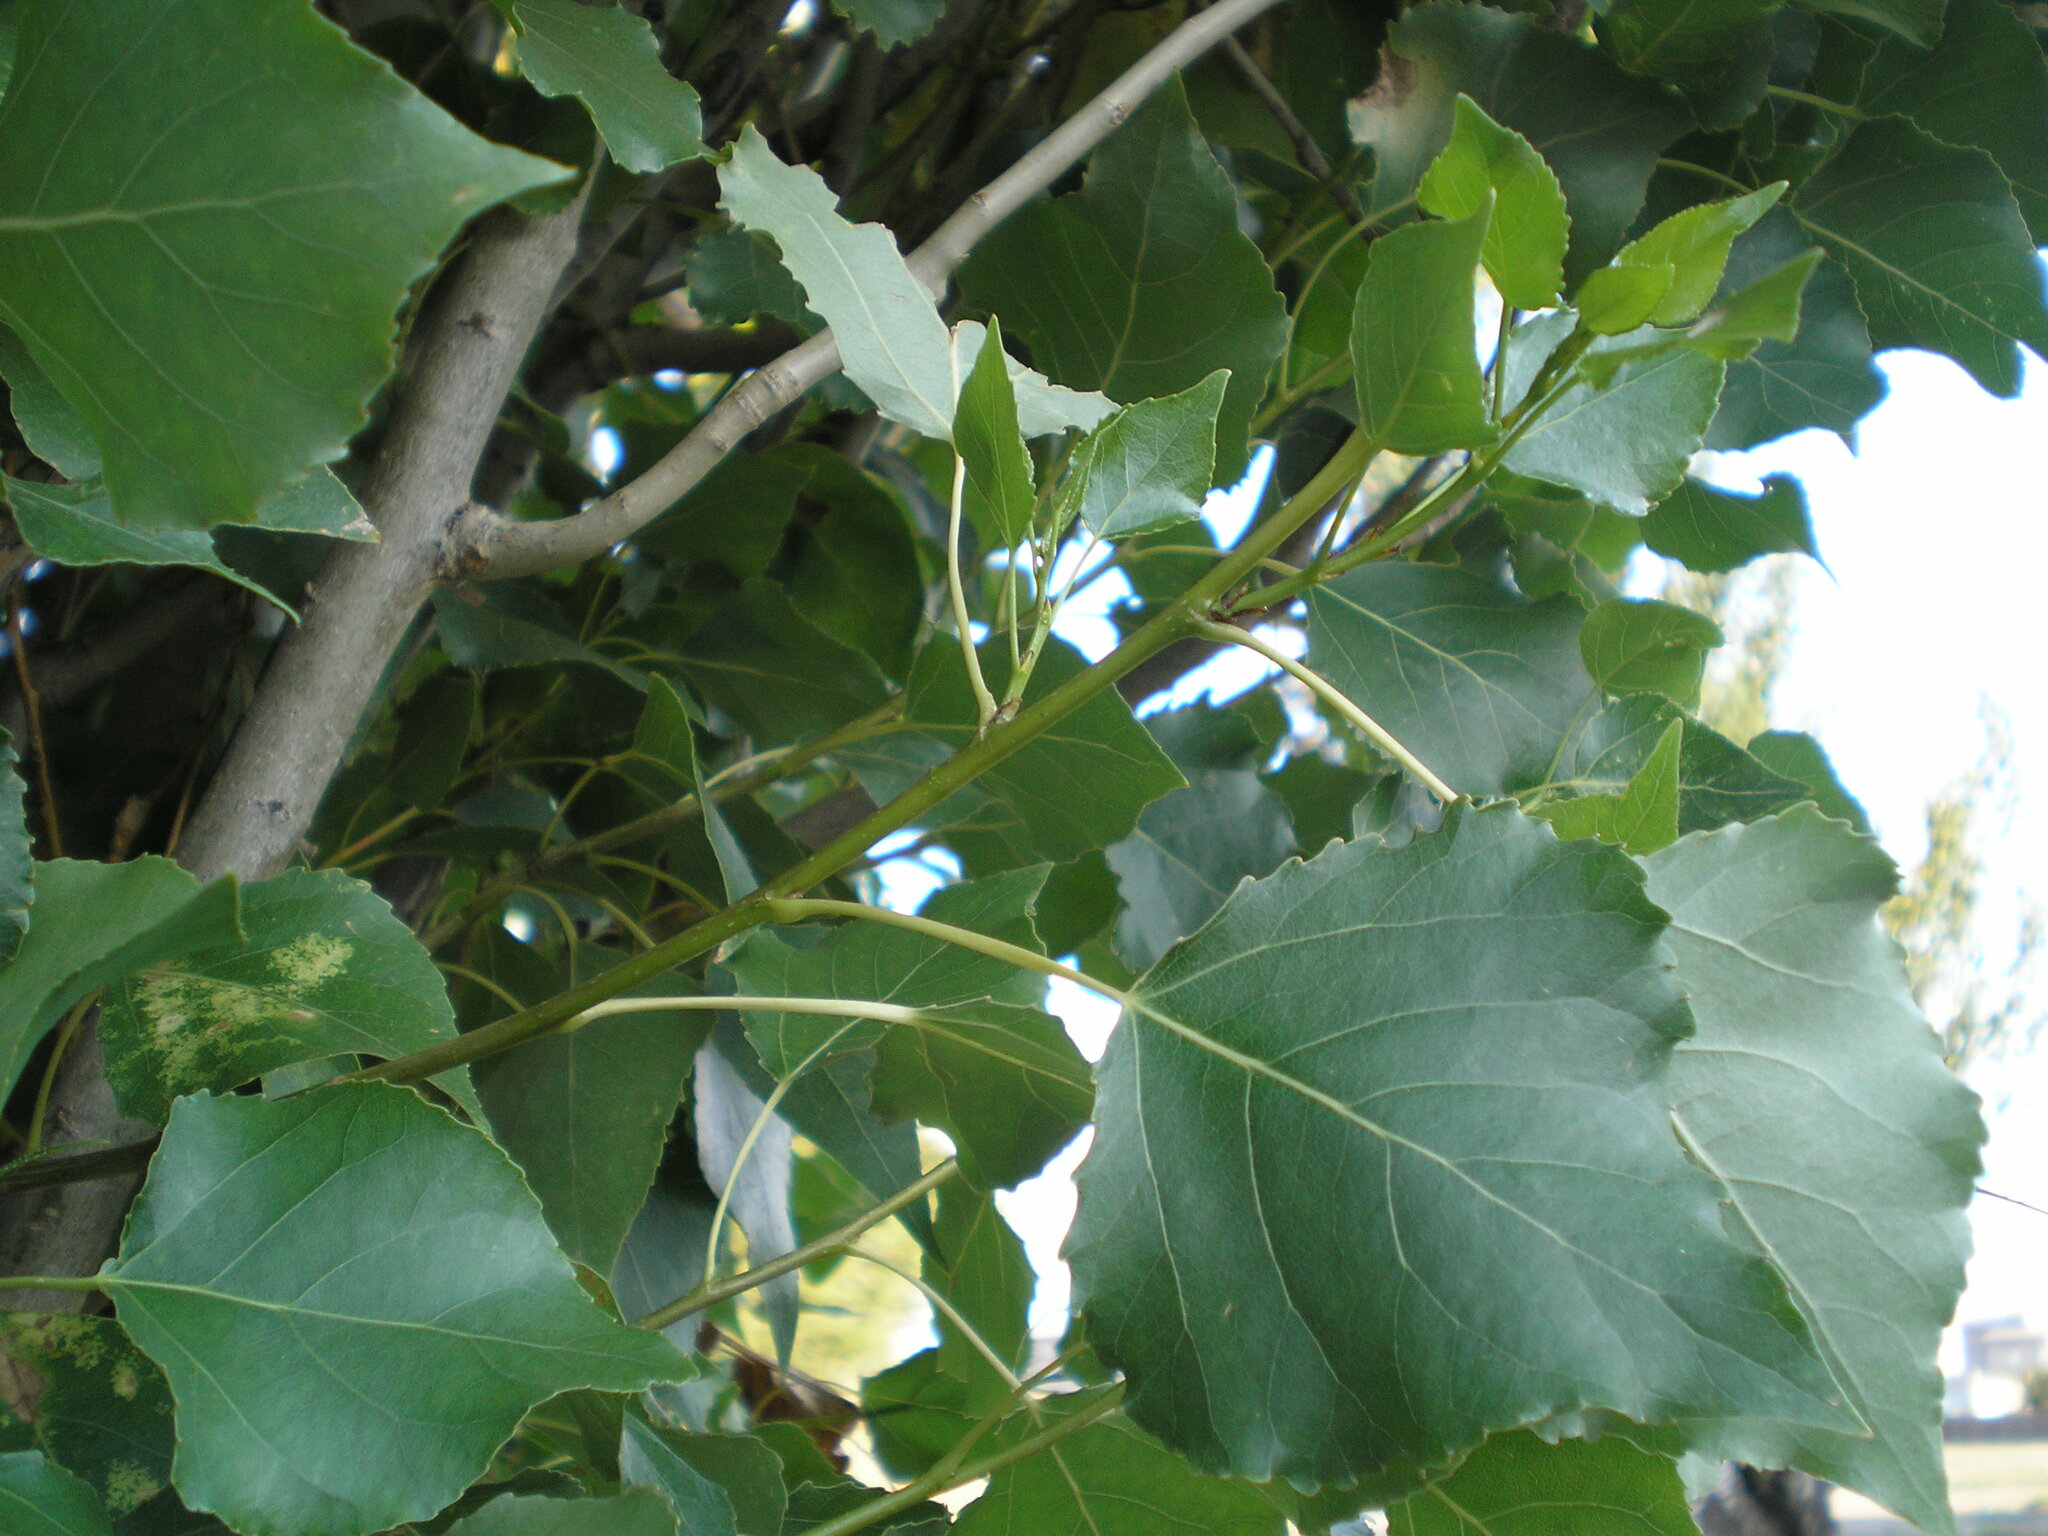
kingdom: Plantae
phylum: Tracheophyta
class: Magnoliopsida
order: Malpighiales
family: Salicaceae
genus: Populus
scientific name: Populus nigra
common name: Black poplar
